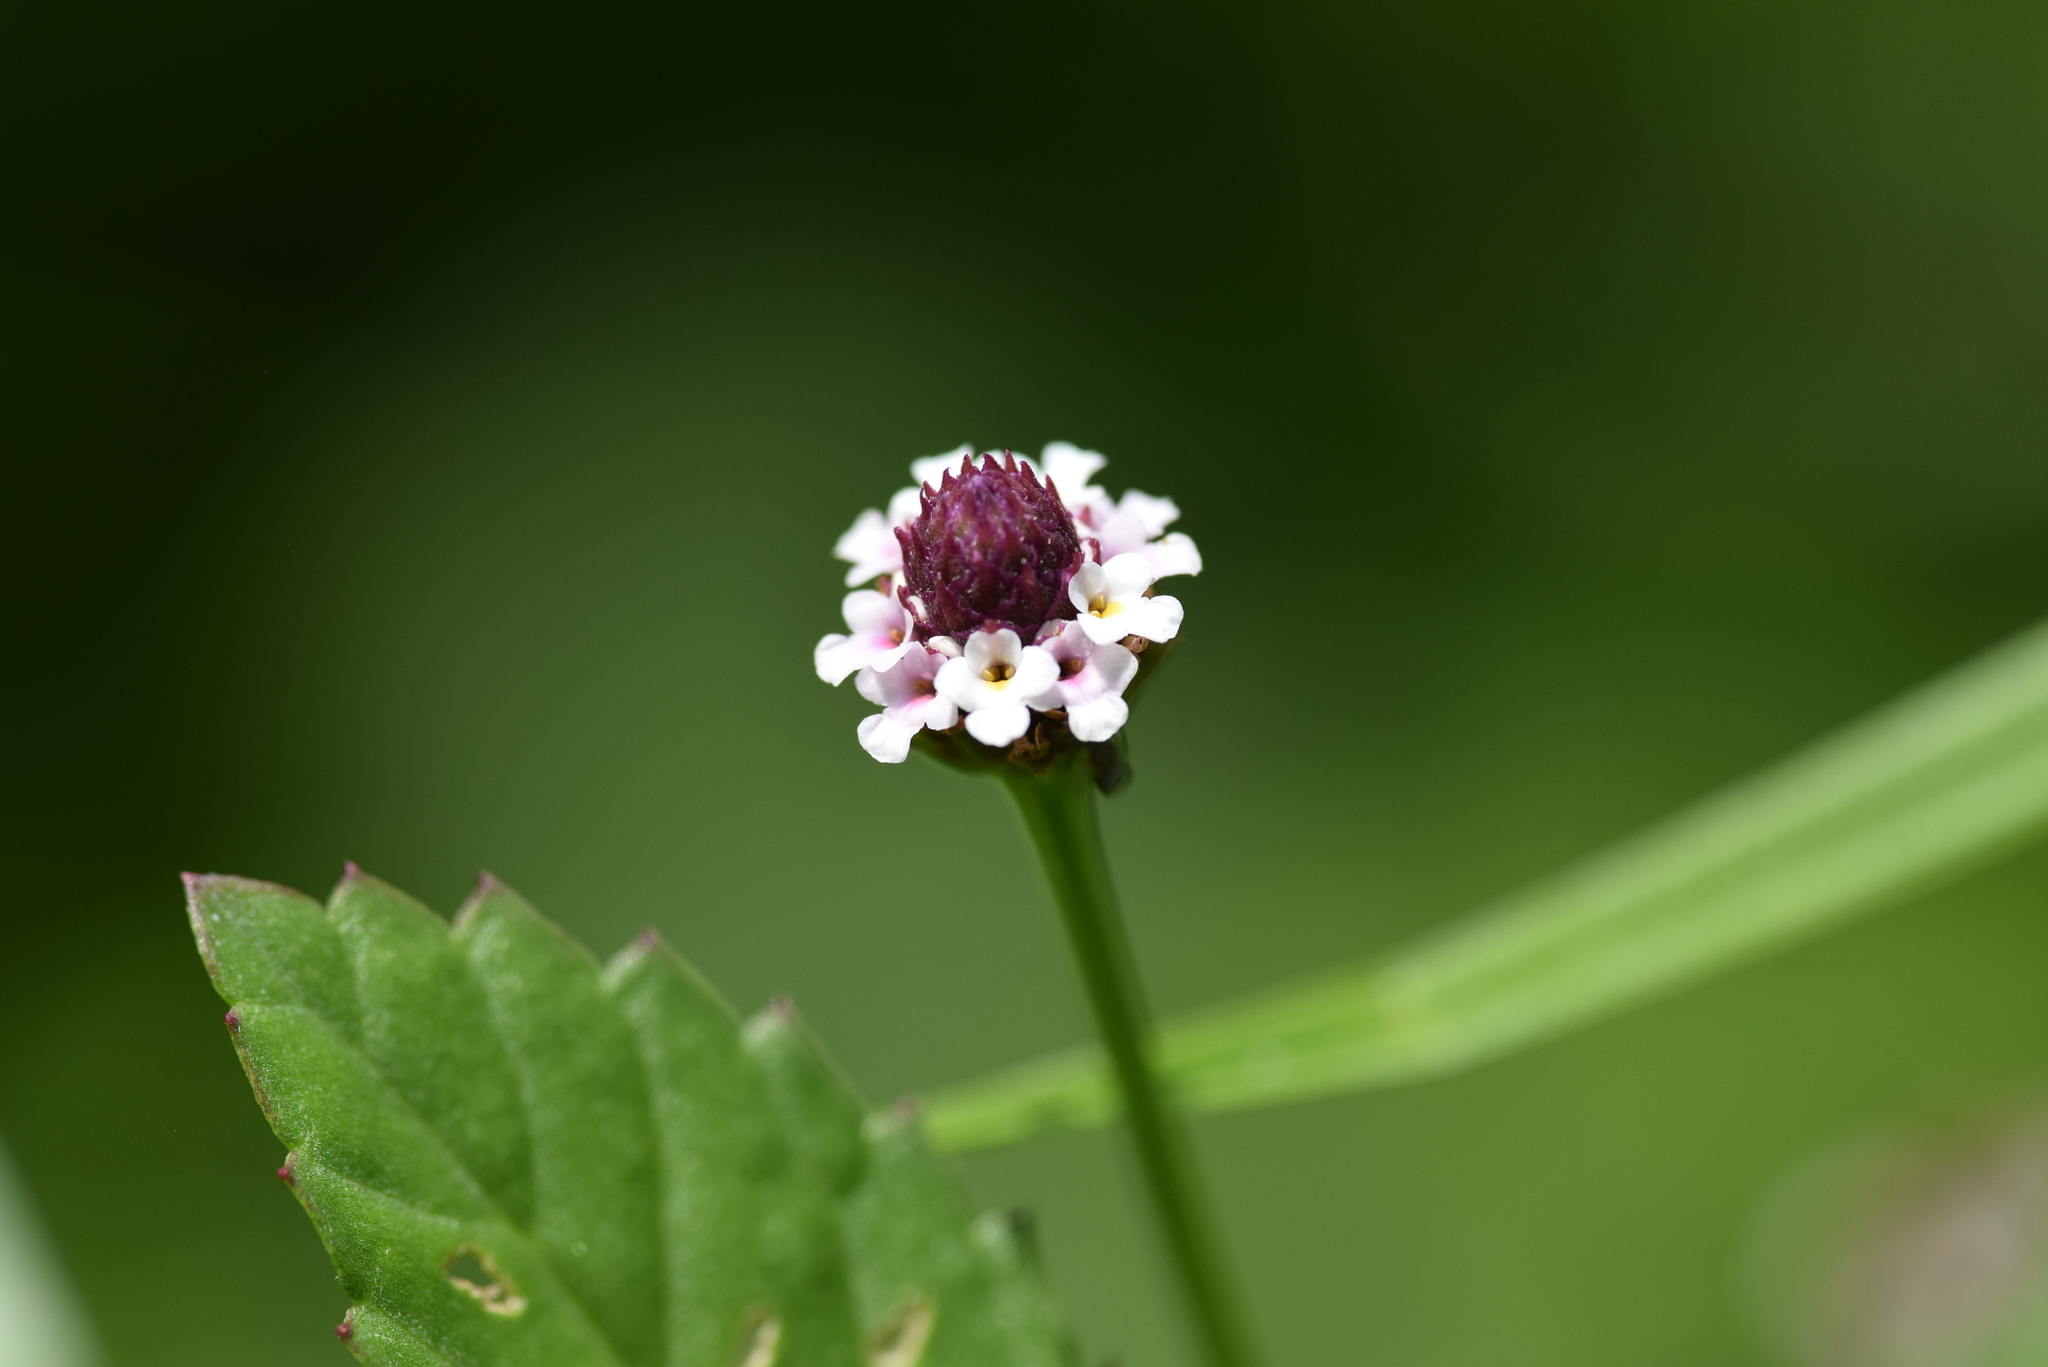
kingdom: Plantae
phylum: Tracheophyta
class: Magnoliopsida
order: Lamiales
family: Verbenaceae
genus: Phyla
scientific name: Phyla lanceolata
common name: Northern fogfruit
